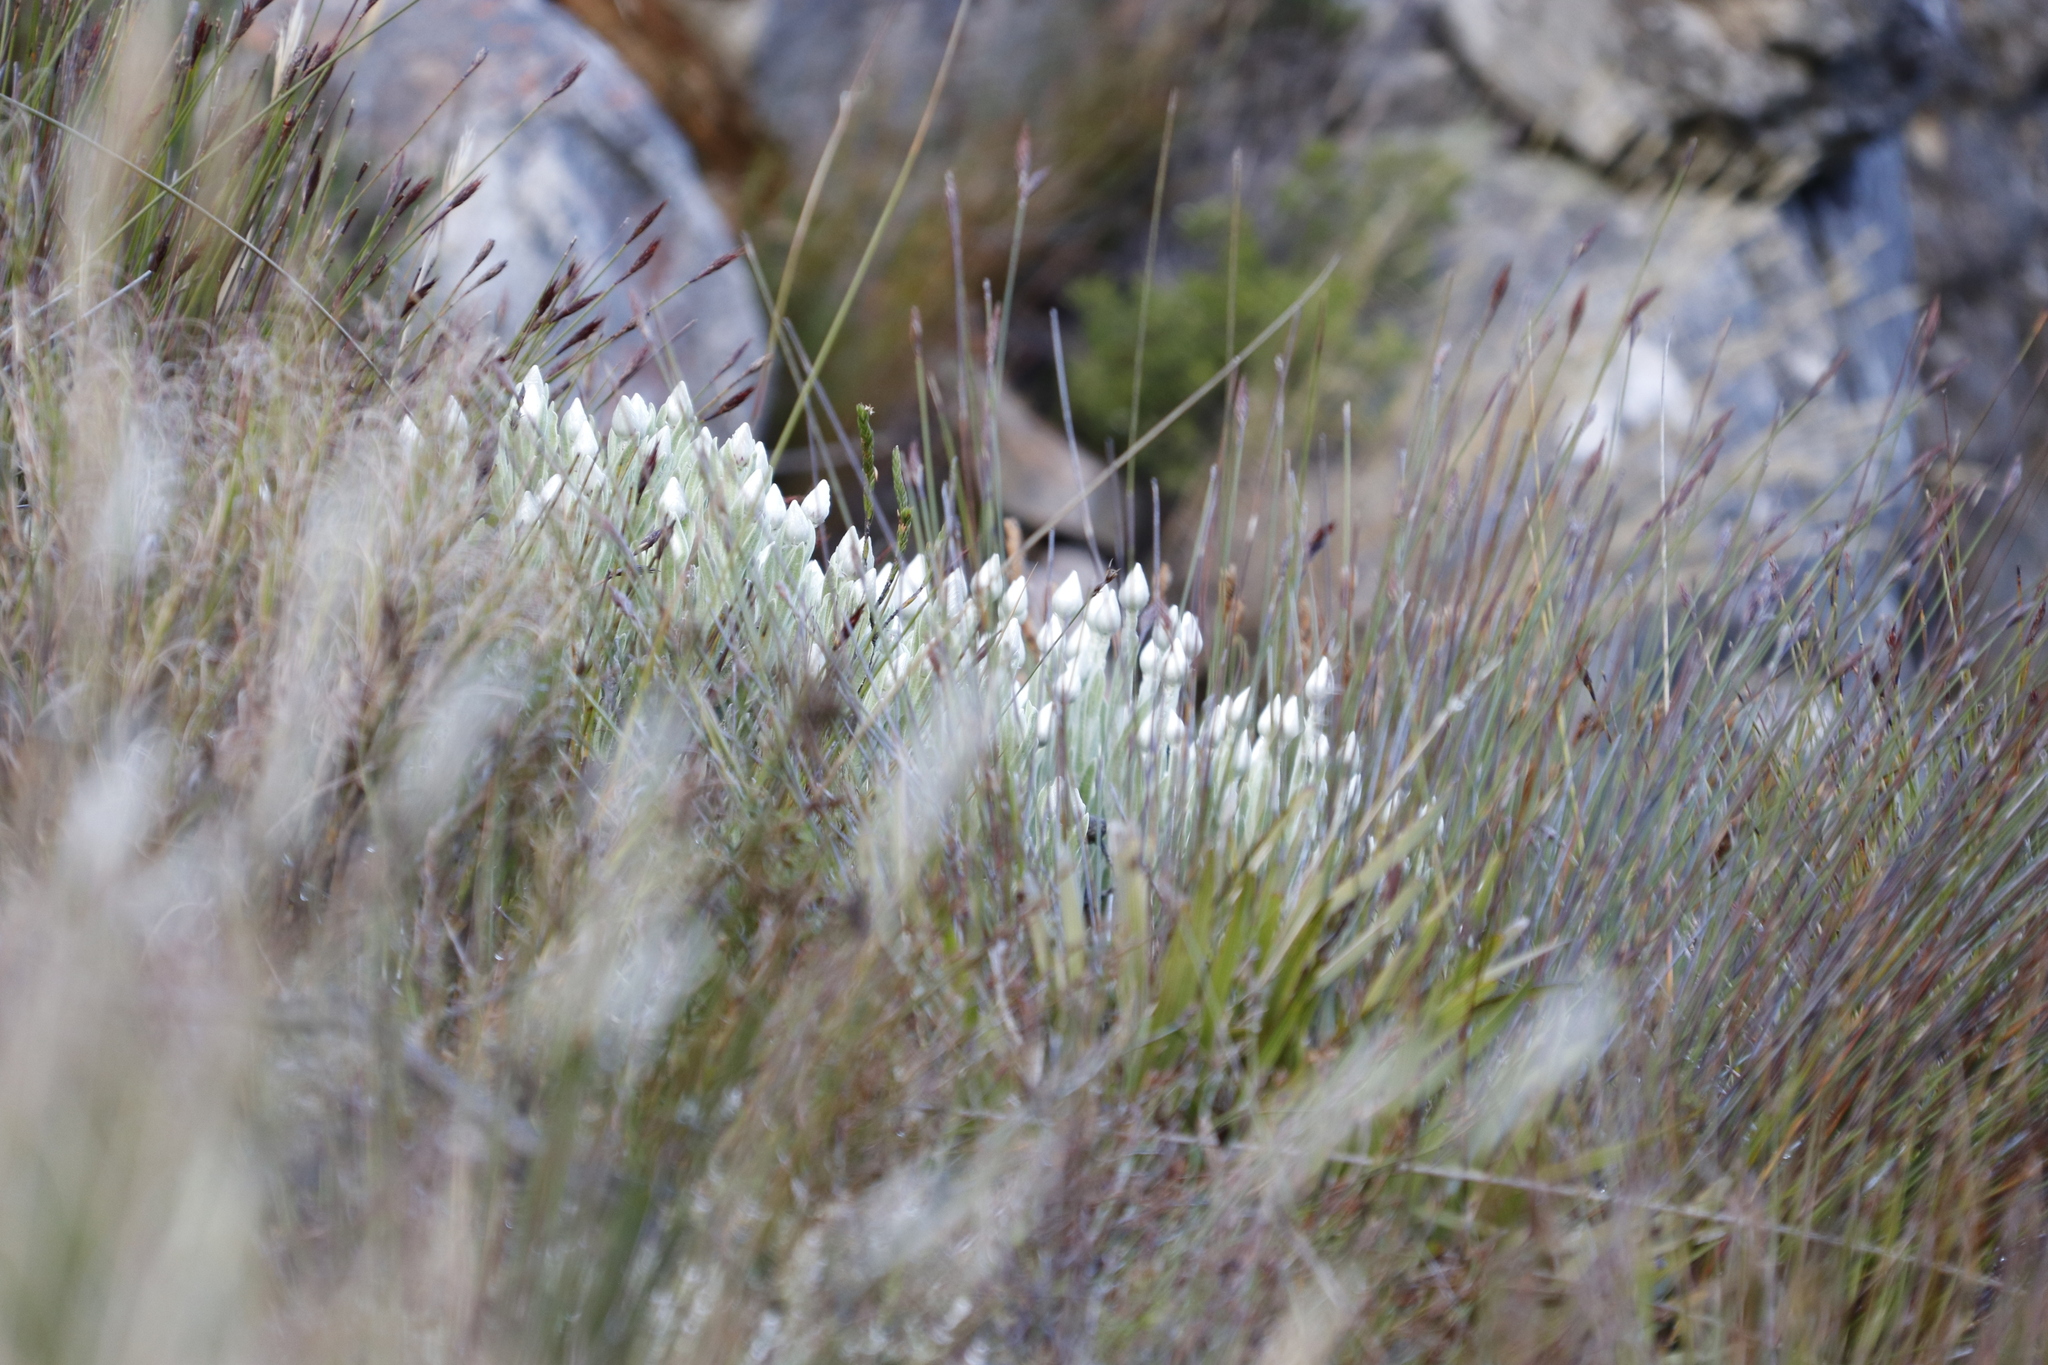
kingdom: Plantae
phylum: Tracheophyta
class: Magnoliopsida
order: Asterales
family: Asteraceae
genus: Syncarpha
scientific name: Syncarpha vestita
